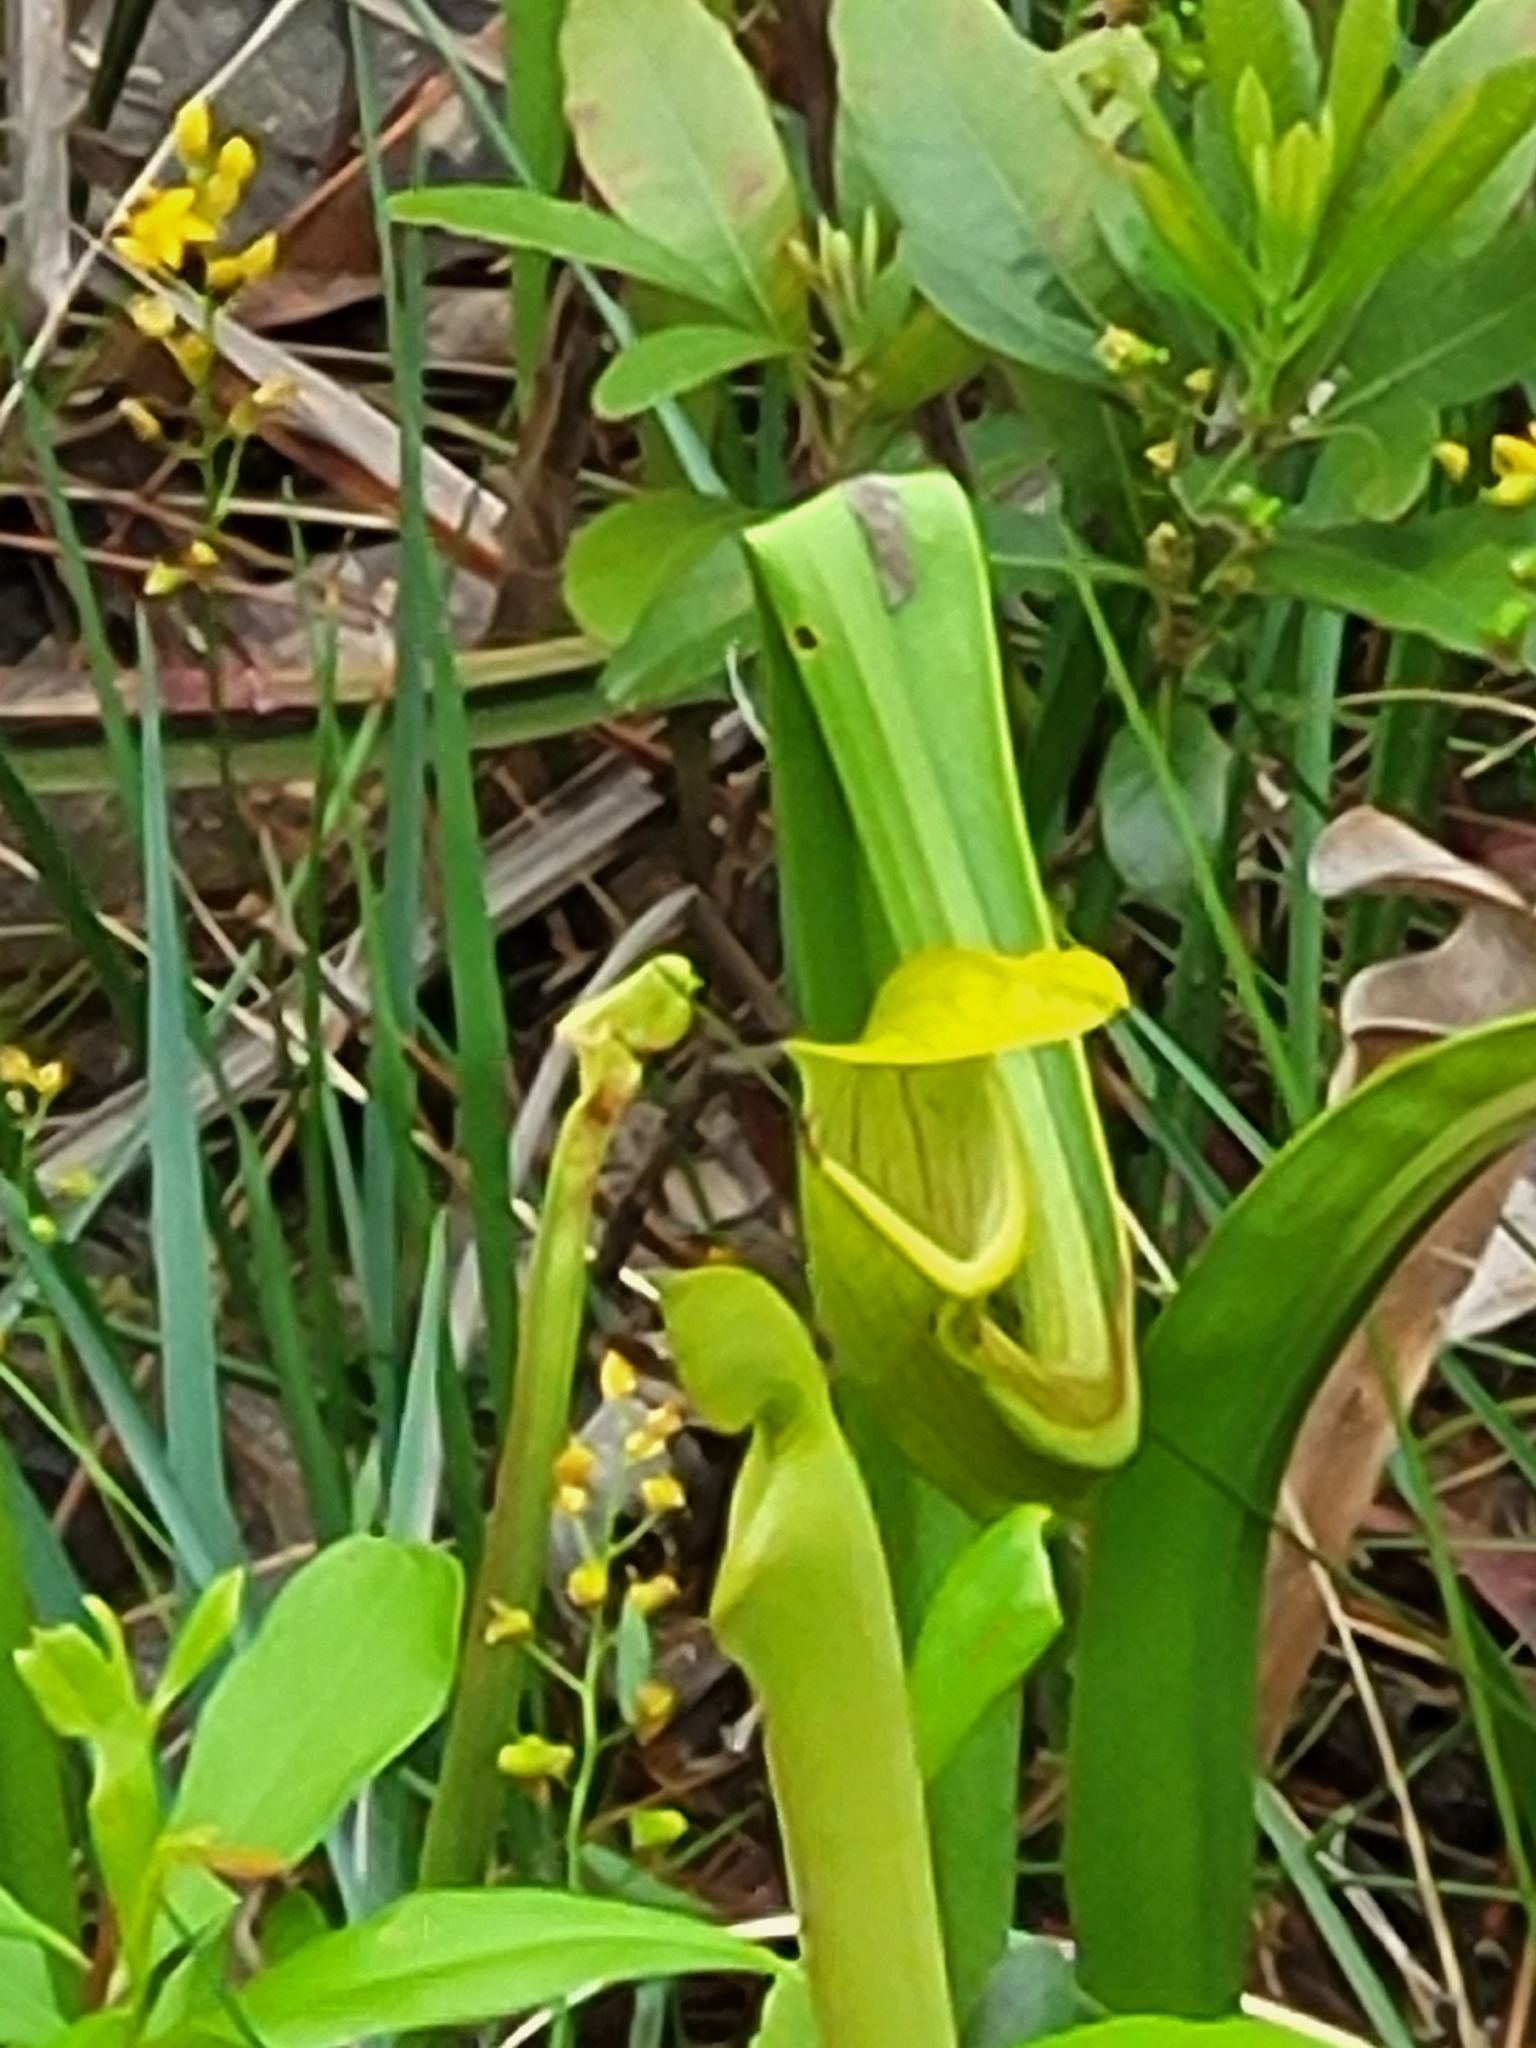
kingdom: Plantae
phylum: Tracheophyta
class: Magnoliopsida
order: Ericales
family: Sarraceniaceae
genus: Sarracenia
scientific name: Sarracenia alata
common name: Yellow trumpets
